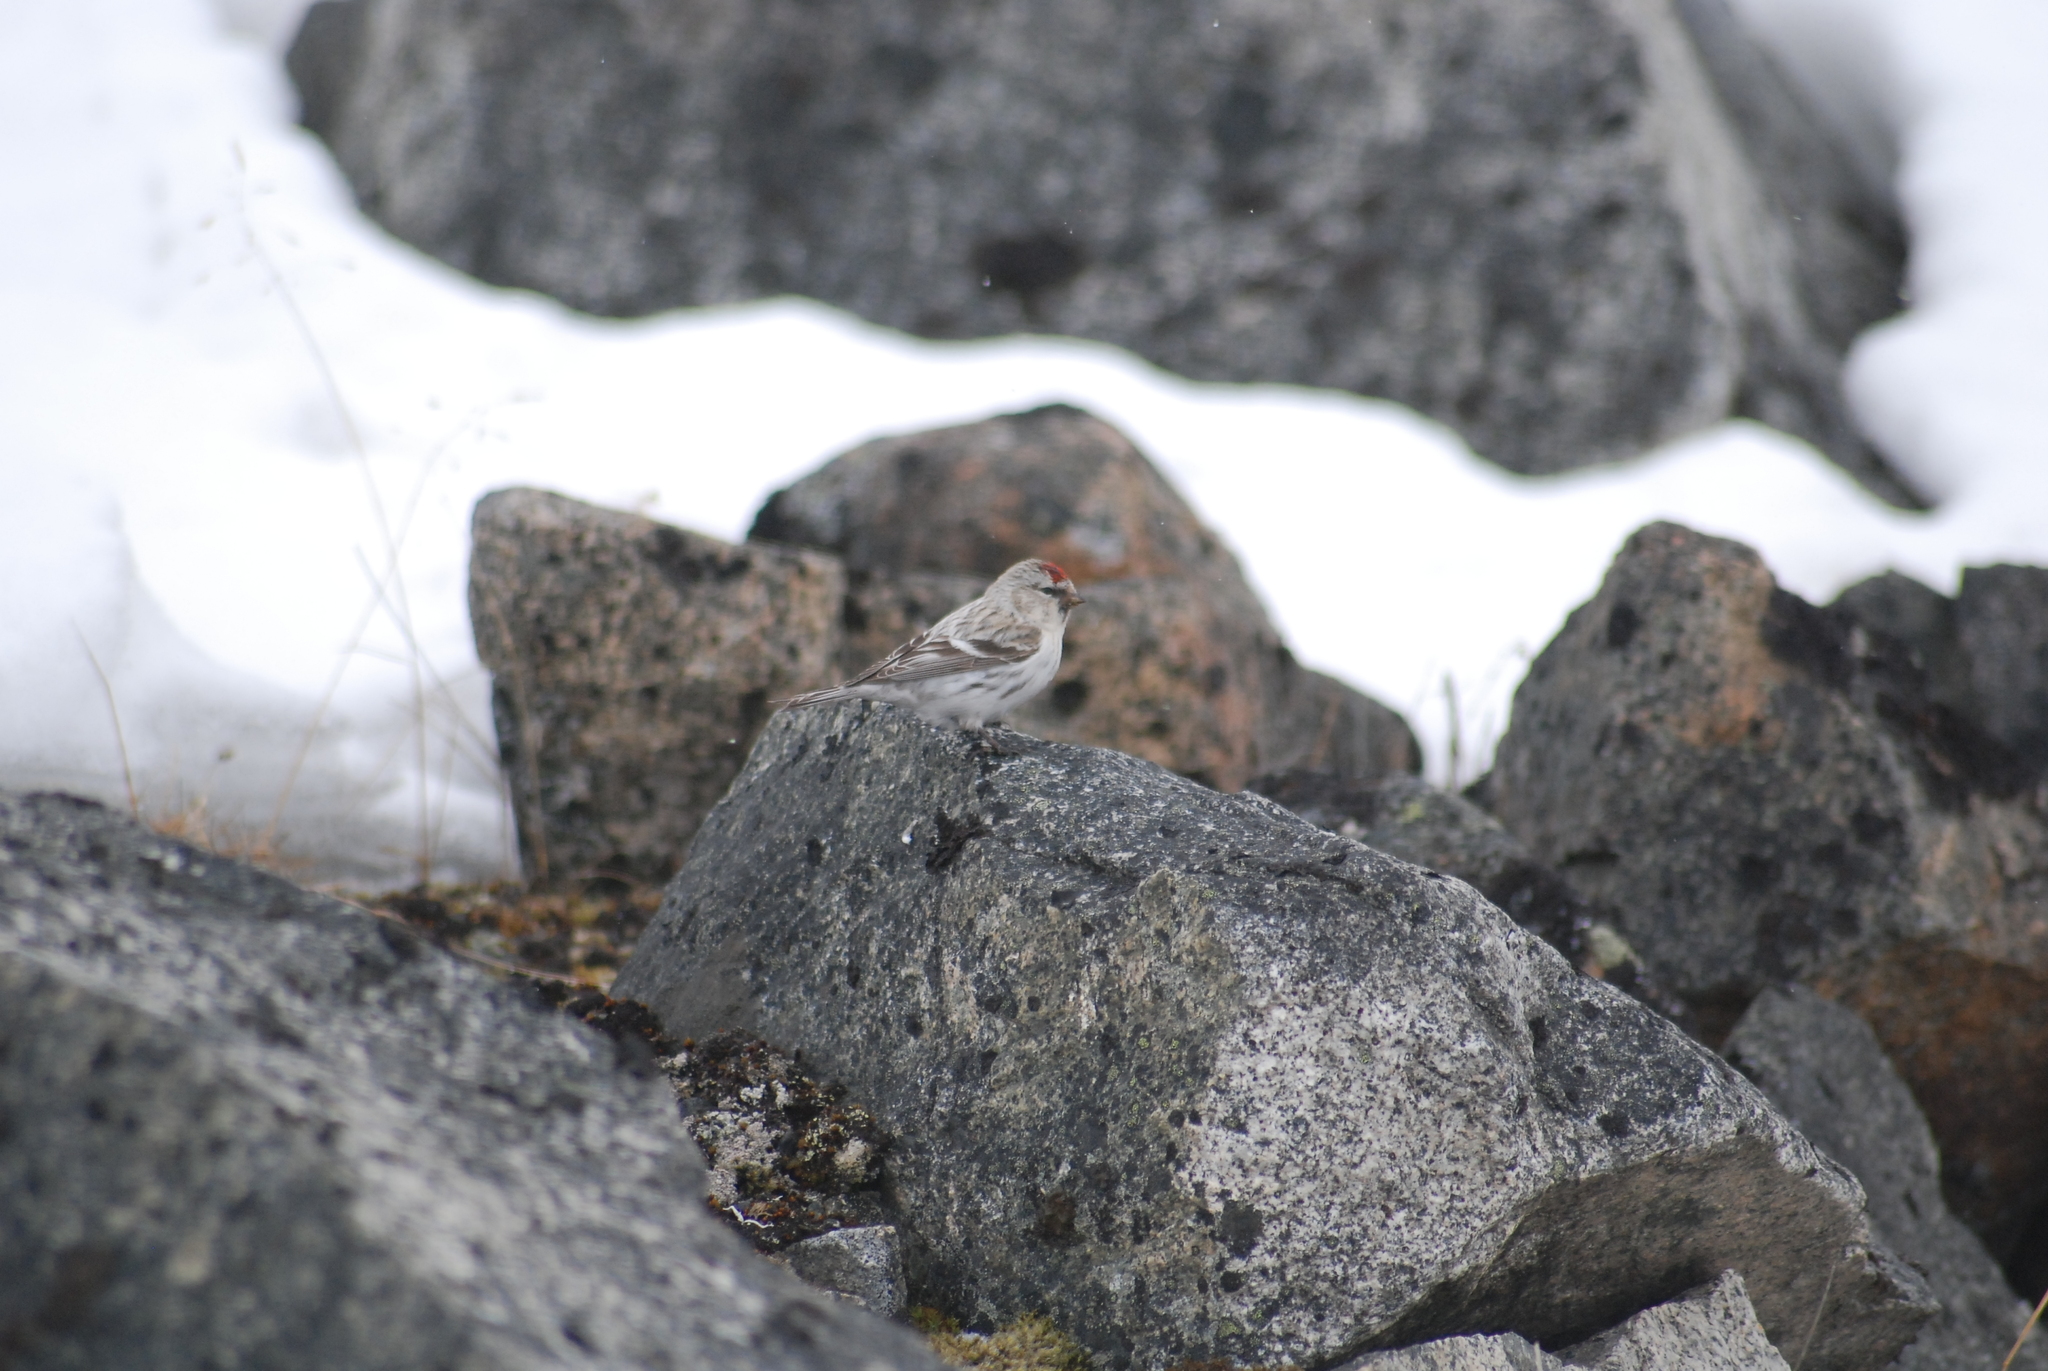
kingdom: Animalia
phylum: Chordata
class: Aves
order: Passeriformes
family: Fringillidae
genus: Acanthis
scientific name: Acanthis hornemanni
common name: Arctic redpoll
